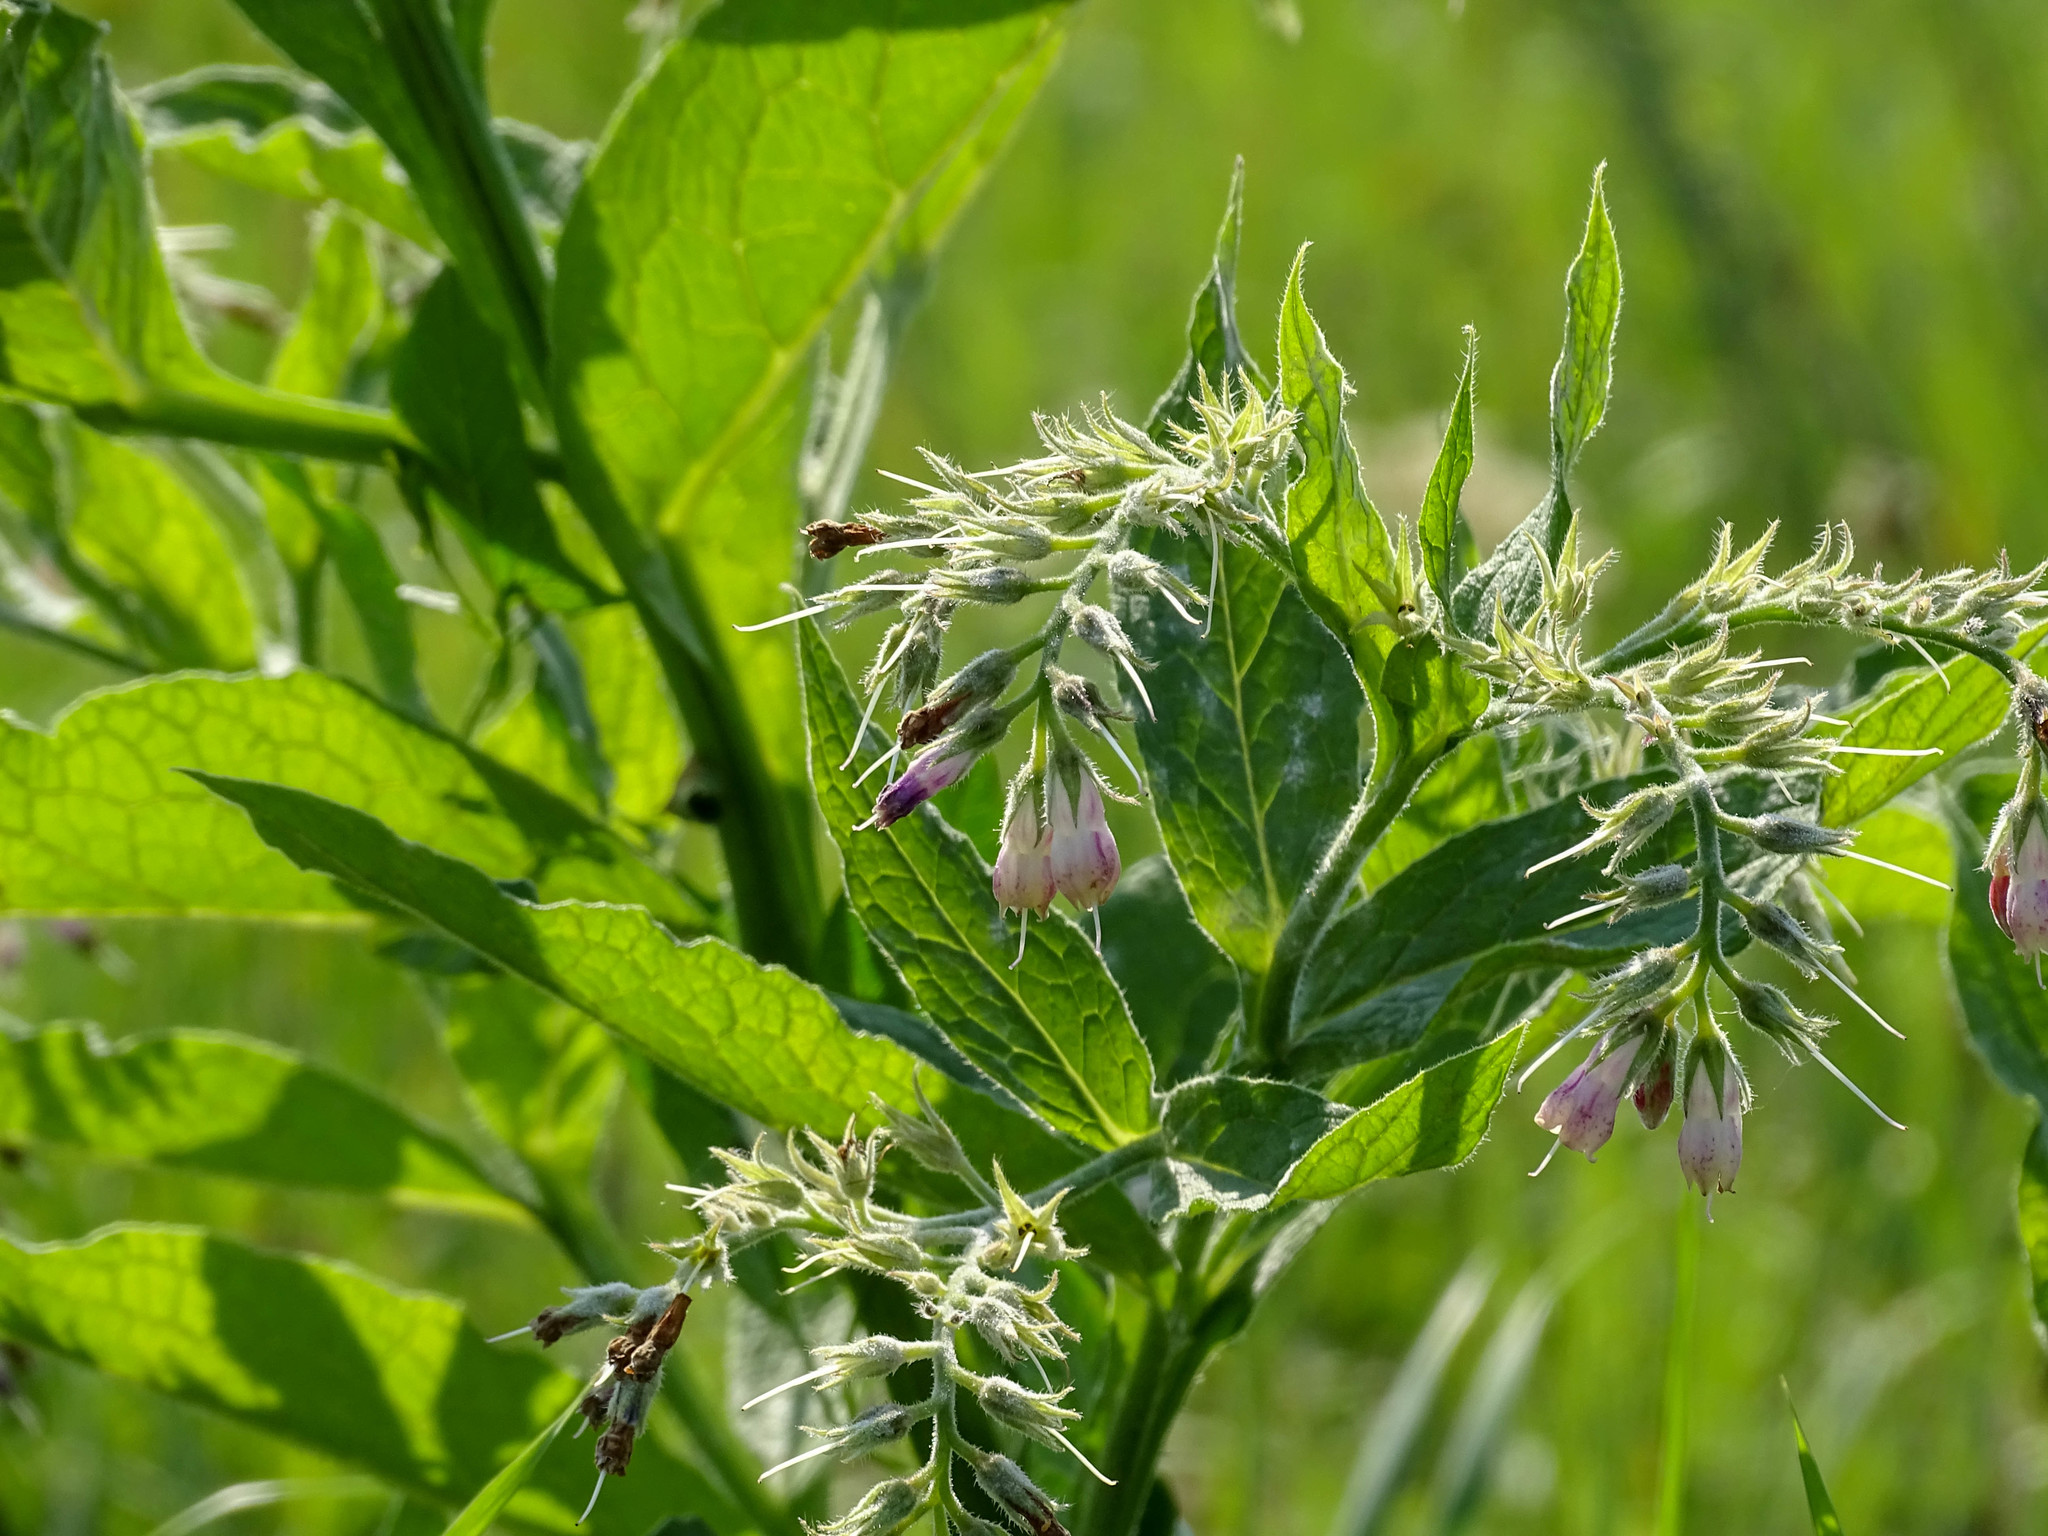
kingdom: Plantae
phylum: Tracheophyta
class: Magnoliopsida
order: Boraginales
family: Boraginaceae
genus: Symphytum
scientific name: Symphytum officinale
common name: Common comfrey
